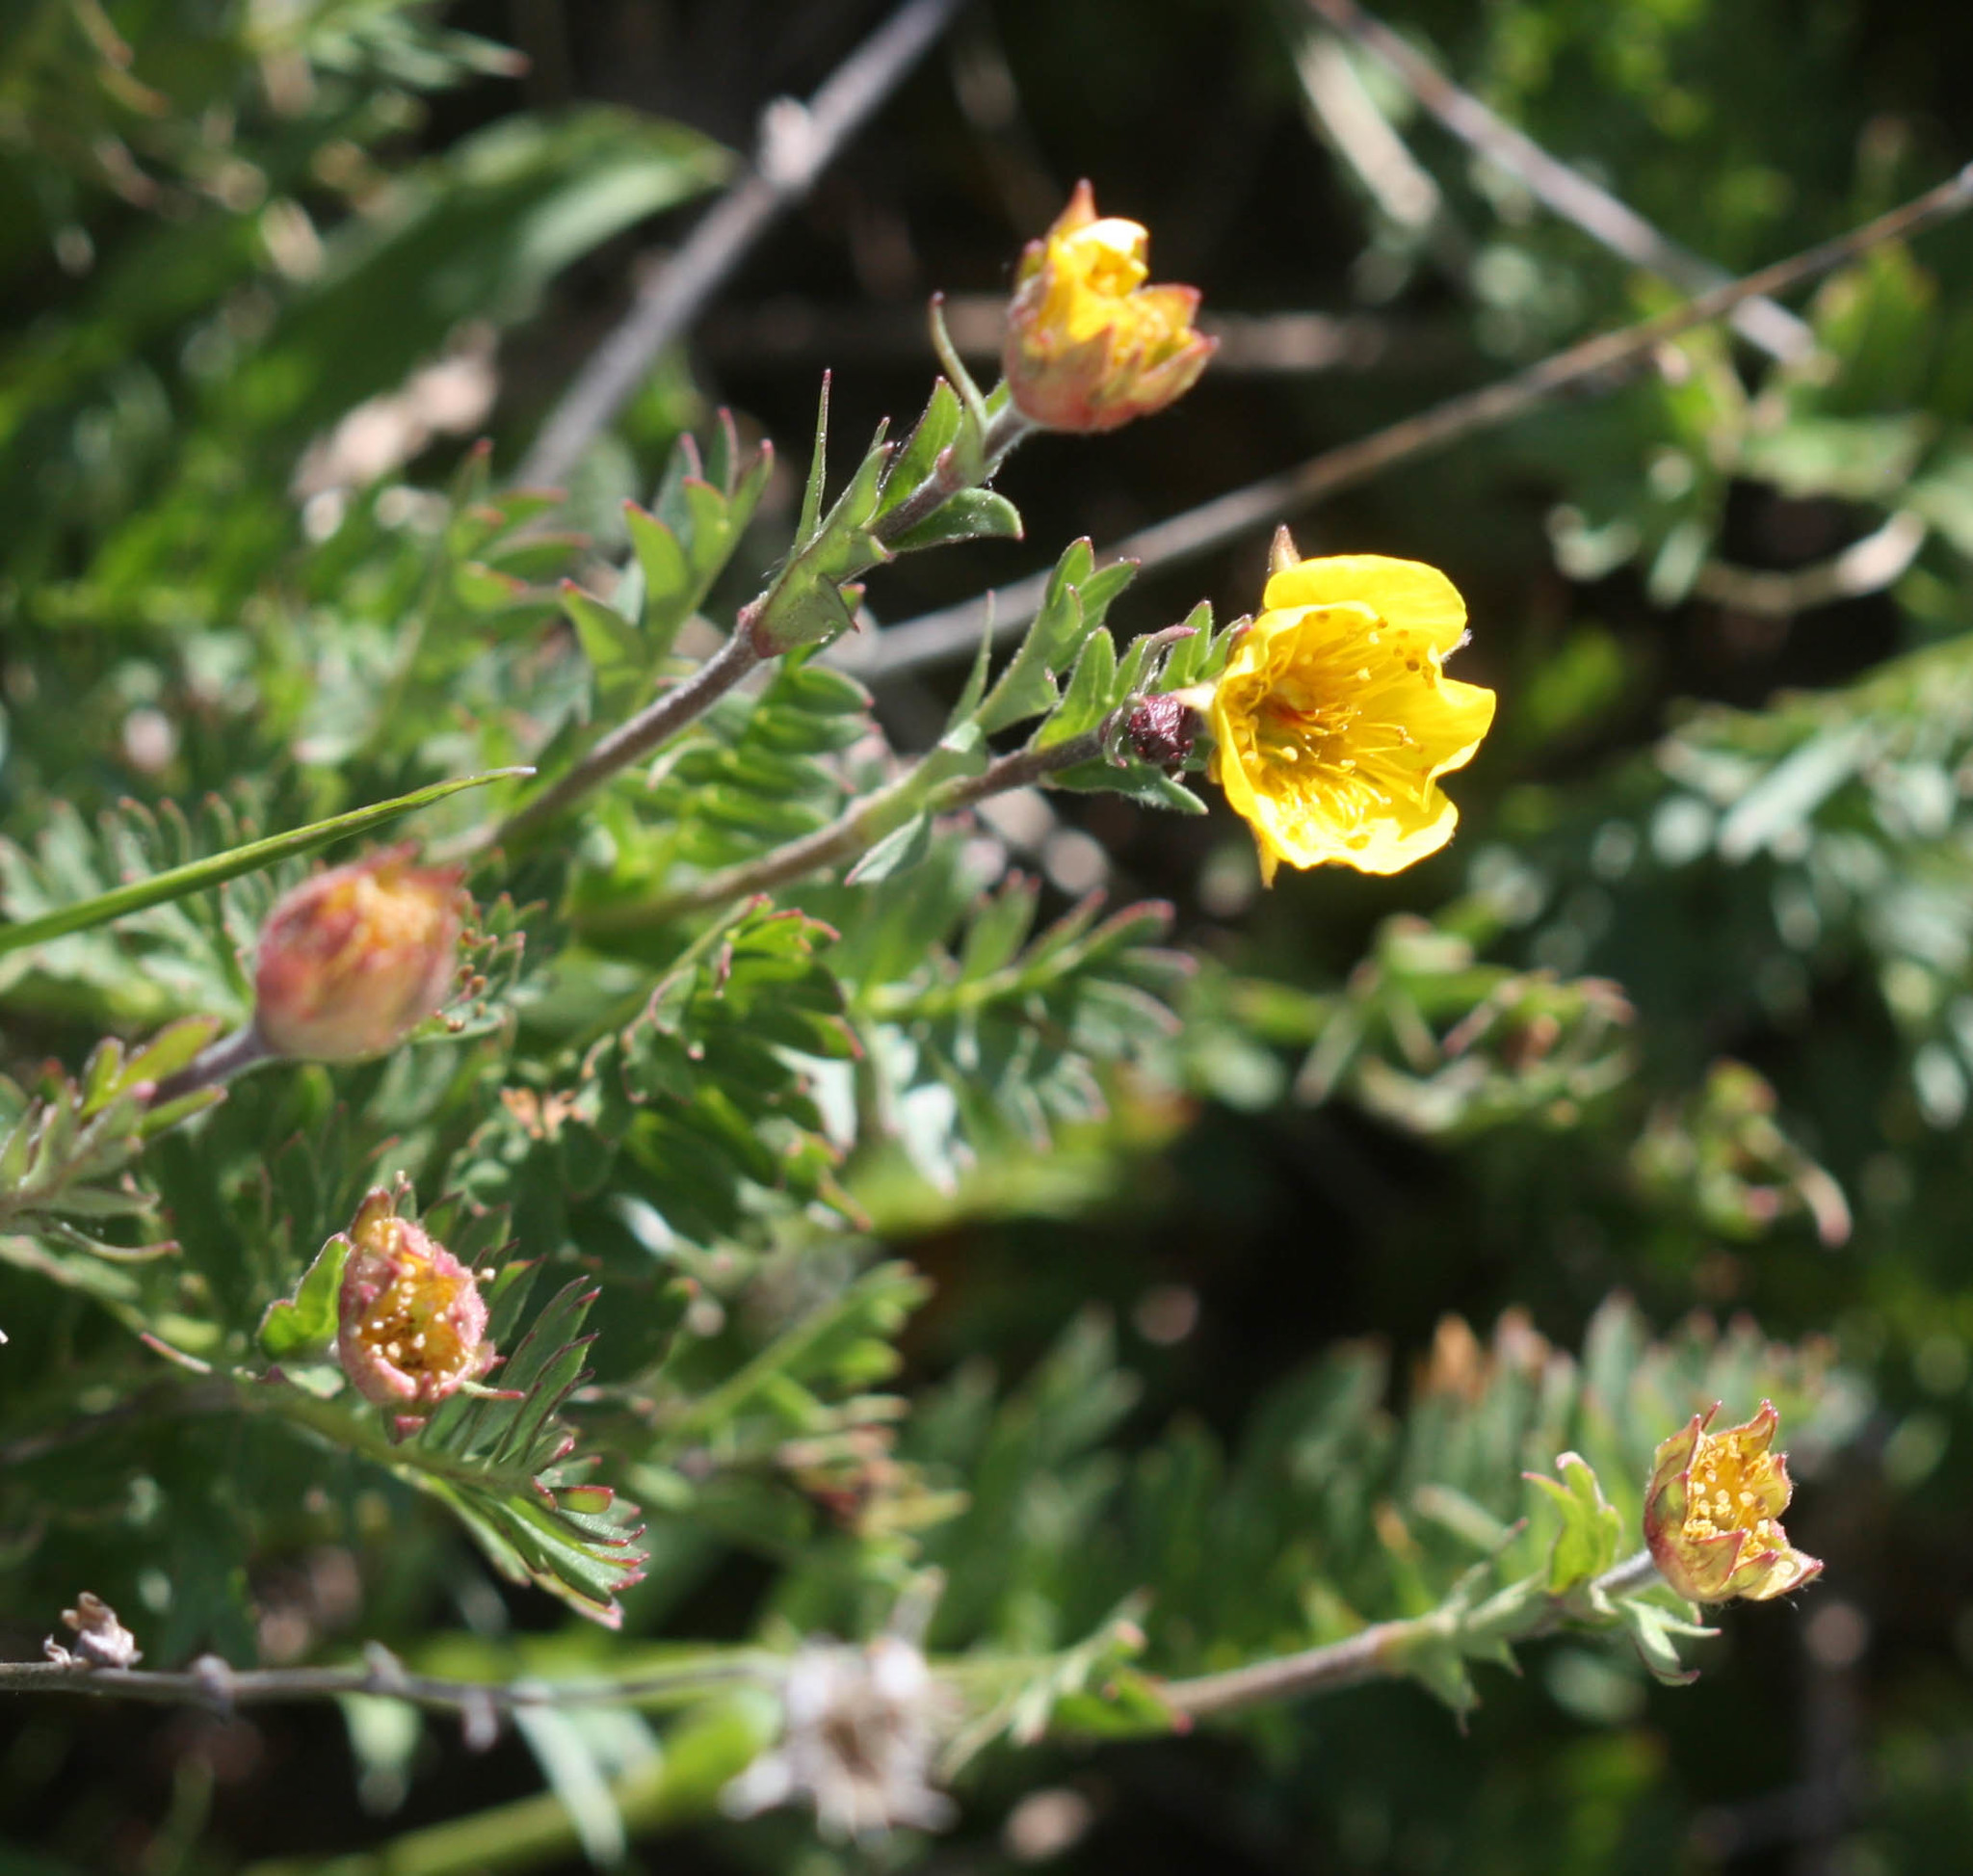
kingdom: Plantae
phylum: Tracheophyta
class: Magnoliopsida
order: Rosales
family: Rosaceae
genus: Geum
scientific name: Geum rossii
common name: Alpine avens
